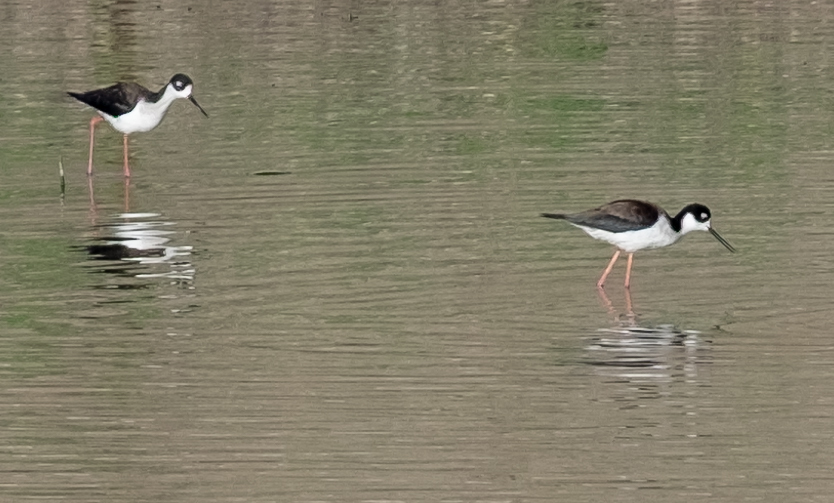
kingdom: Animalia
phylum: Chordata
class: Aves
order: Charadriiformes
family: Recurvirostridae
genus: Himantopus
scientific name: Himantopus mexicanus
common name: Black-necked stilt
